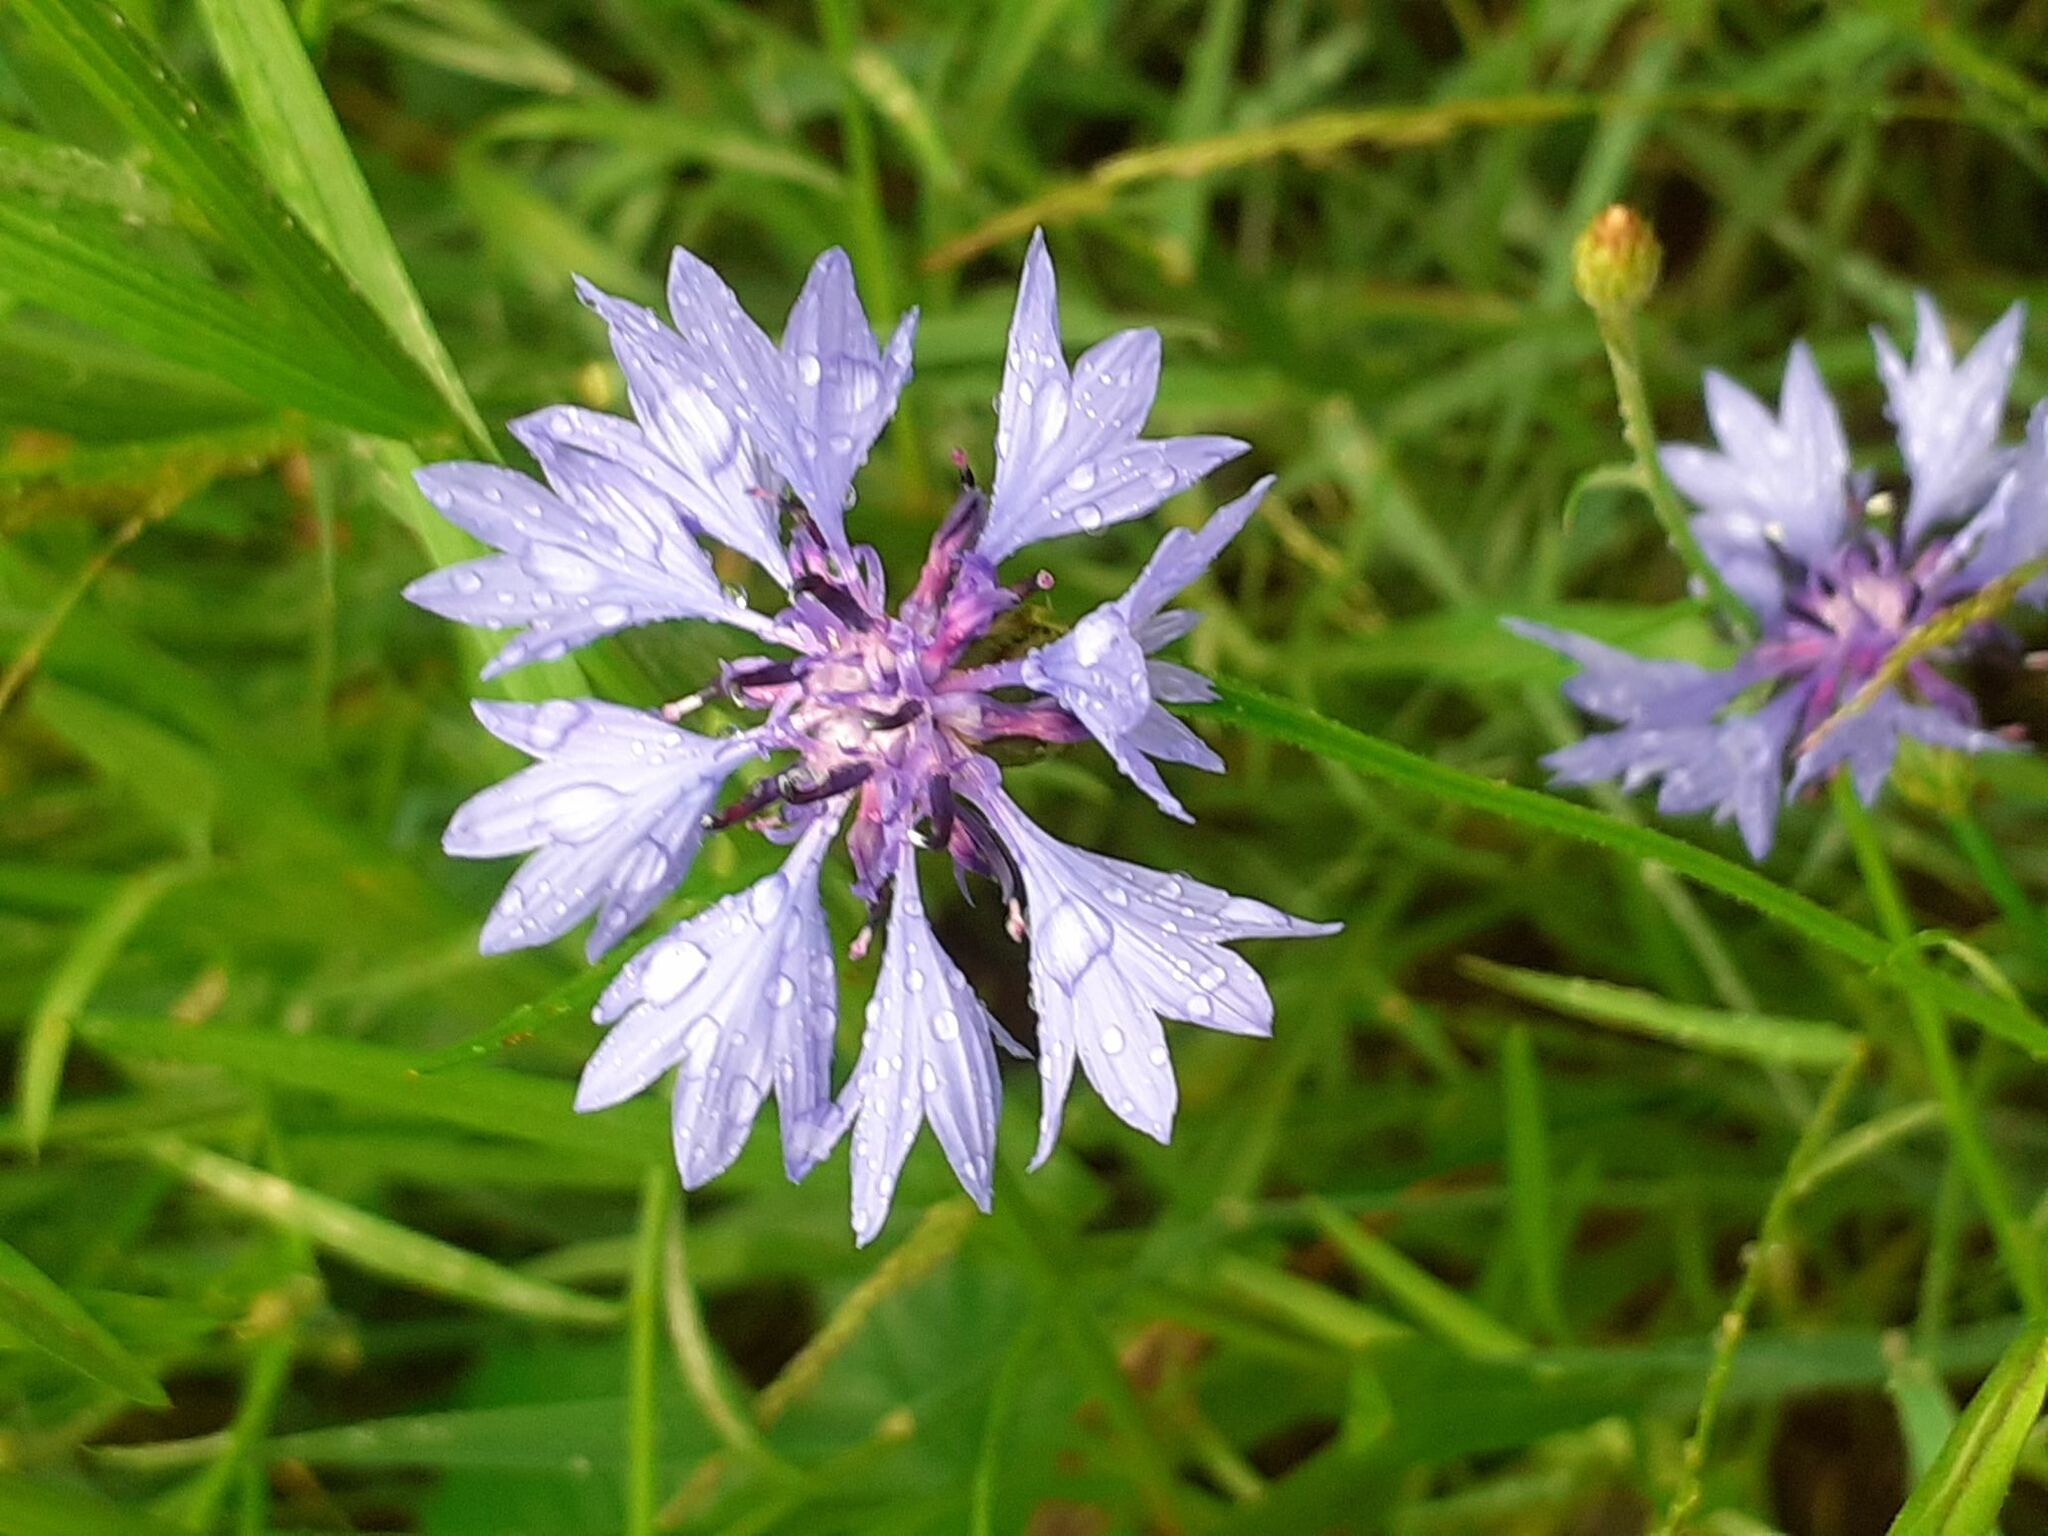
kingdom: Plantae
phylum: Tracheophyta
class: Magnoliopsida
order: Asterales
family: Asteraceae
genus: Centaurea
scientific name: Centaurea cyanus
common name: Cornflower
